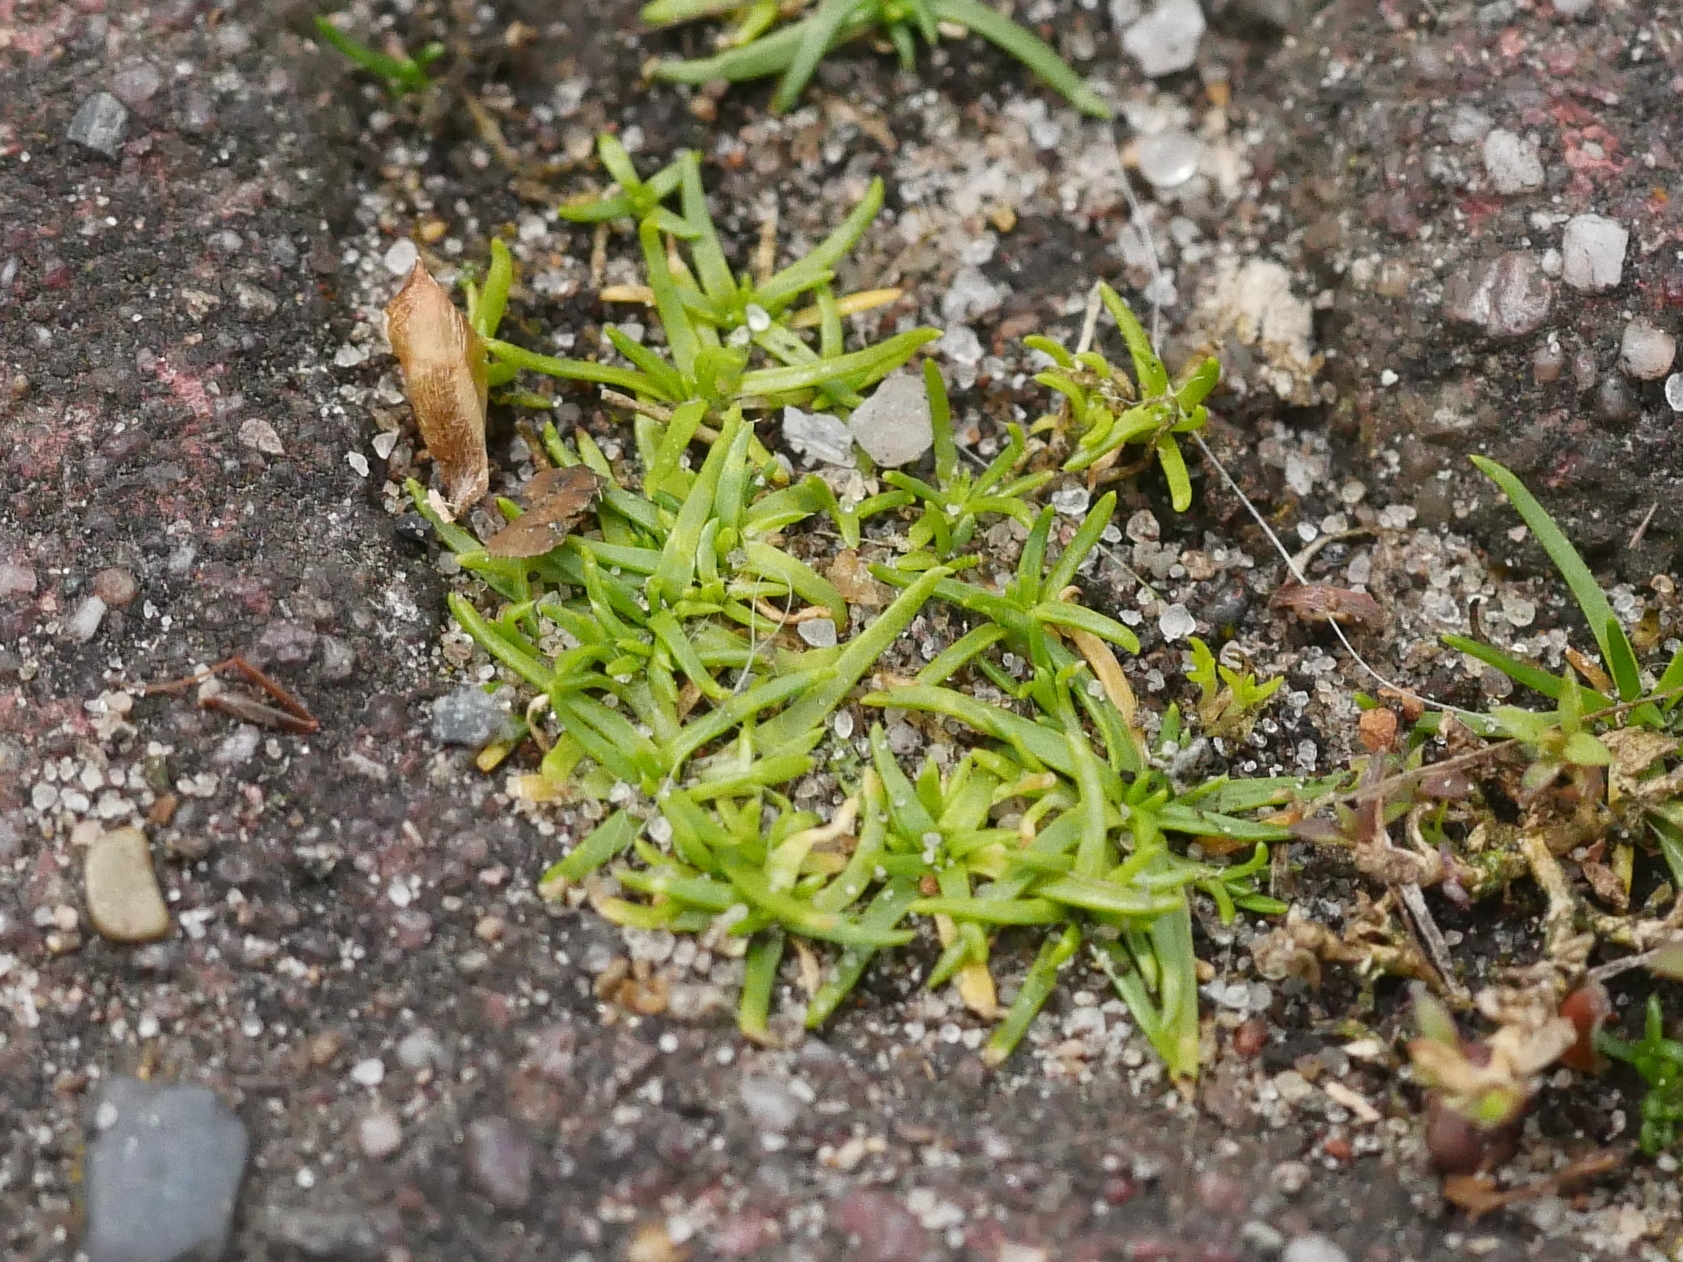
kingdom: Plantae
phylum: Tracheophyta
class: Magnoliopsida
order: Caryophyllales
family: Caryophyllaceae
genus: Sagina
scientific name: Sagina procumbens
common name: Procumbent pearlwort
